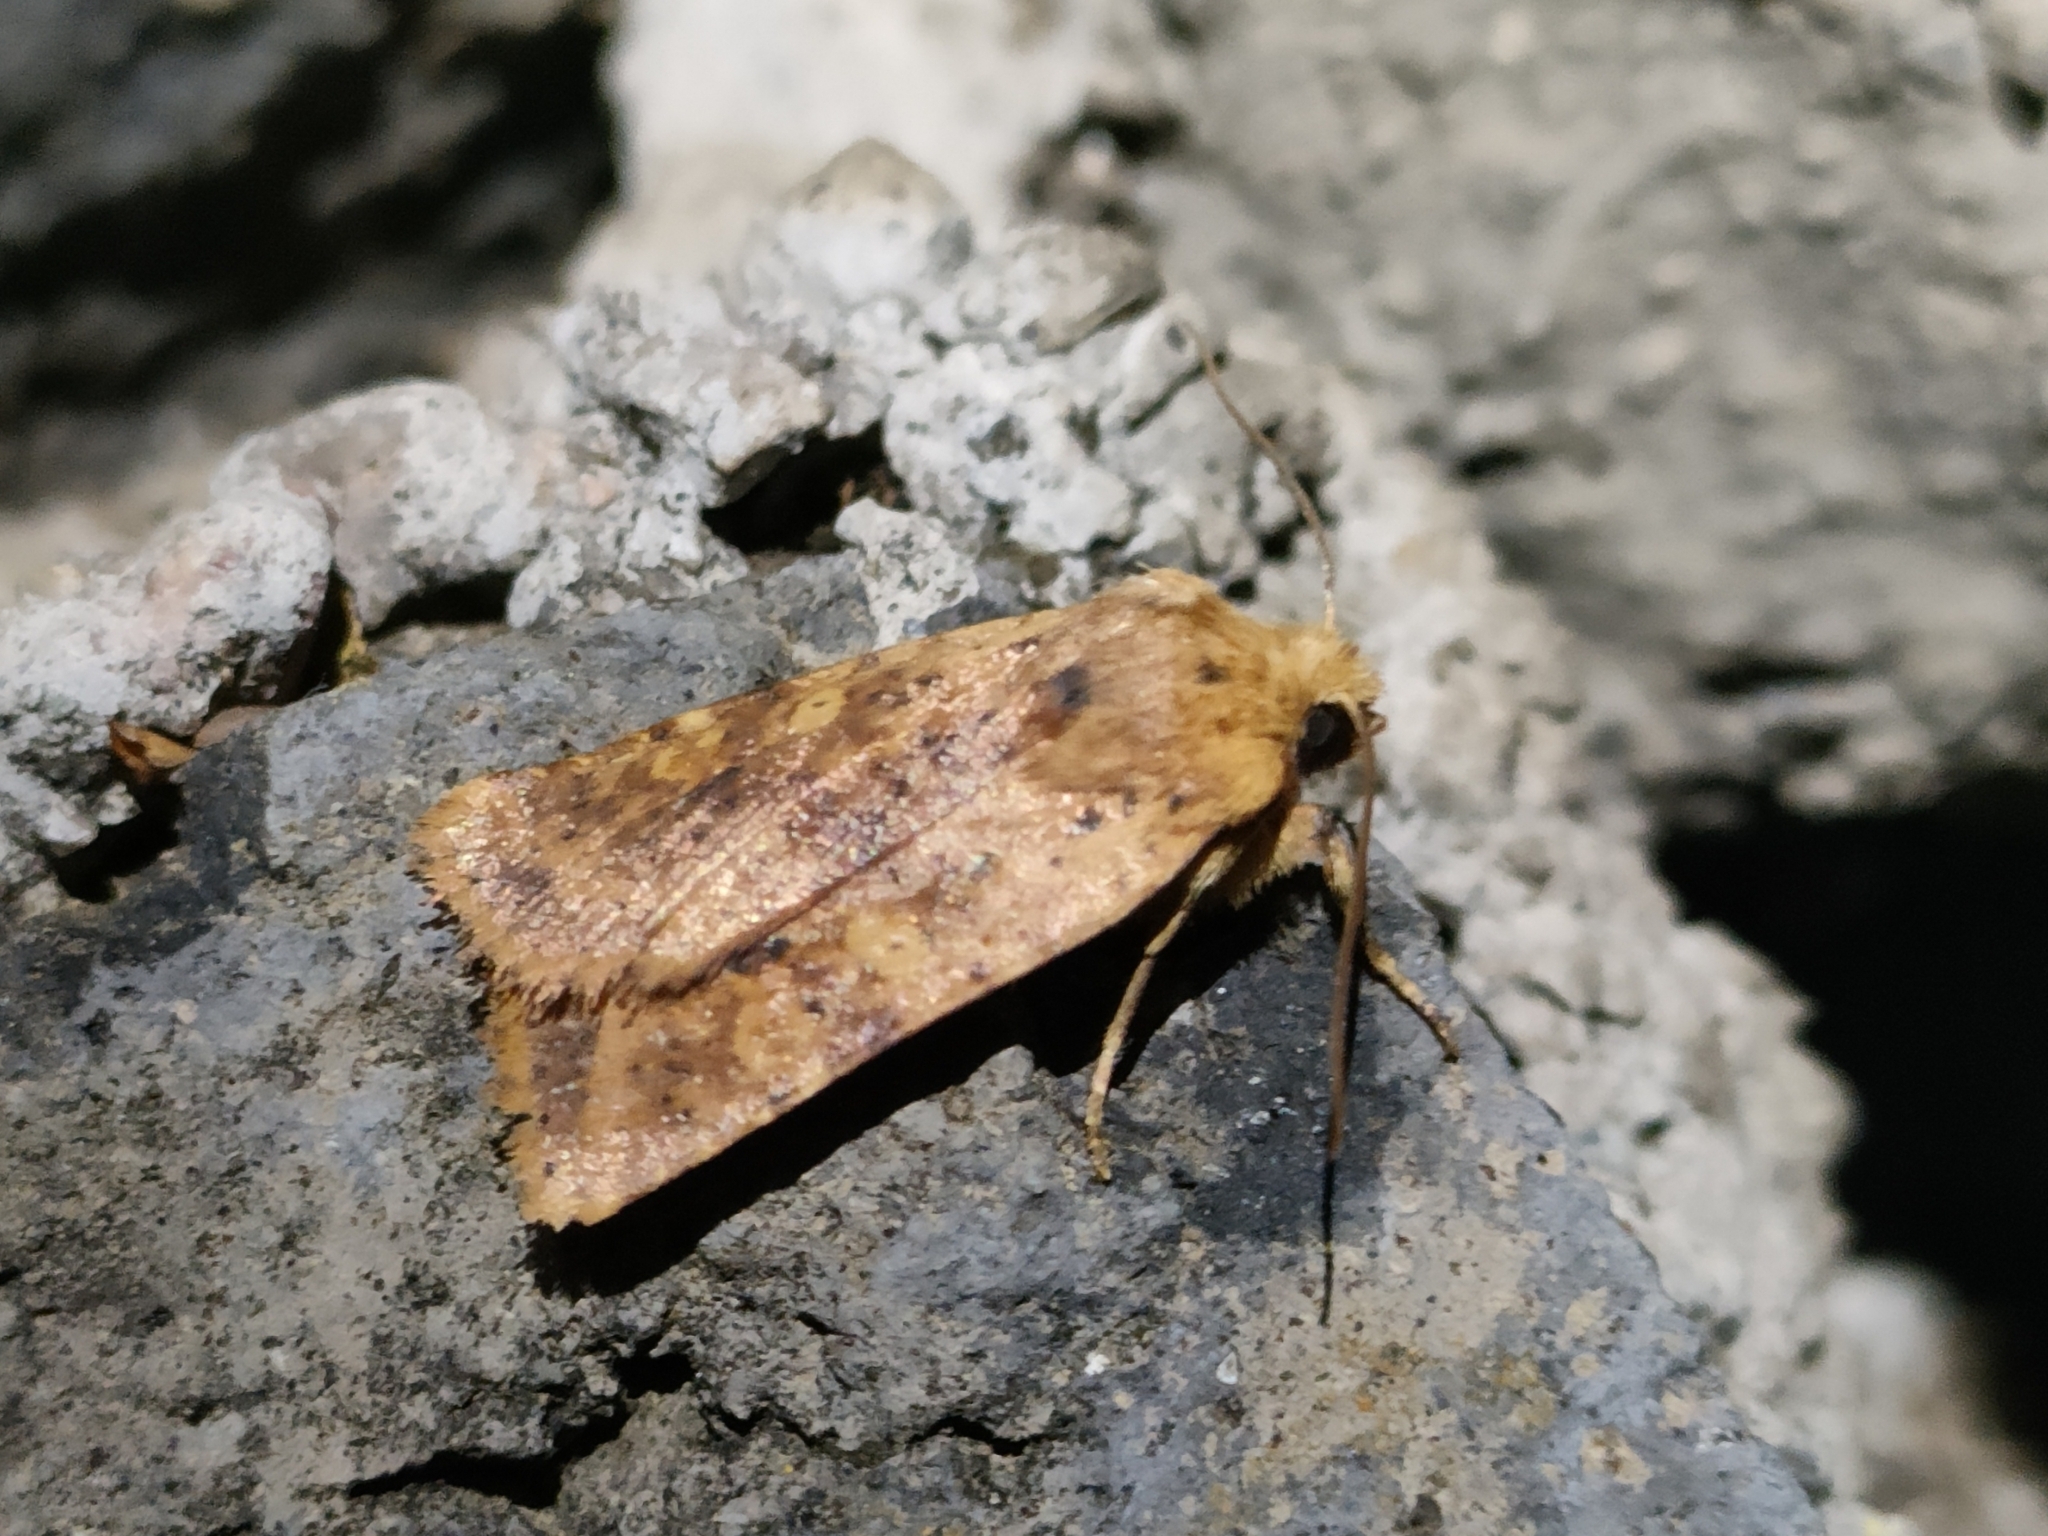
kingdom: Animalia
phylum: Arthropoda
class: Insecta
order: Lepidoptera
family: Noctuidae
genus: Conistra
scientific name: Conistra rubiginea
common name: Dotted chestnut
